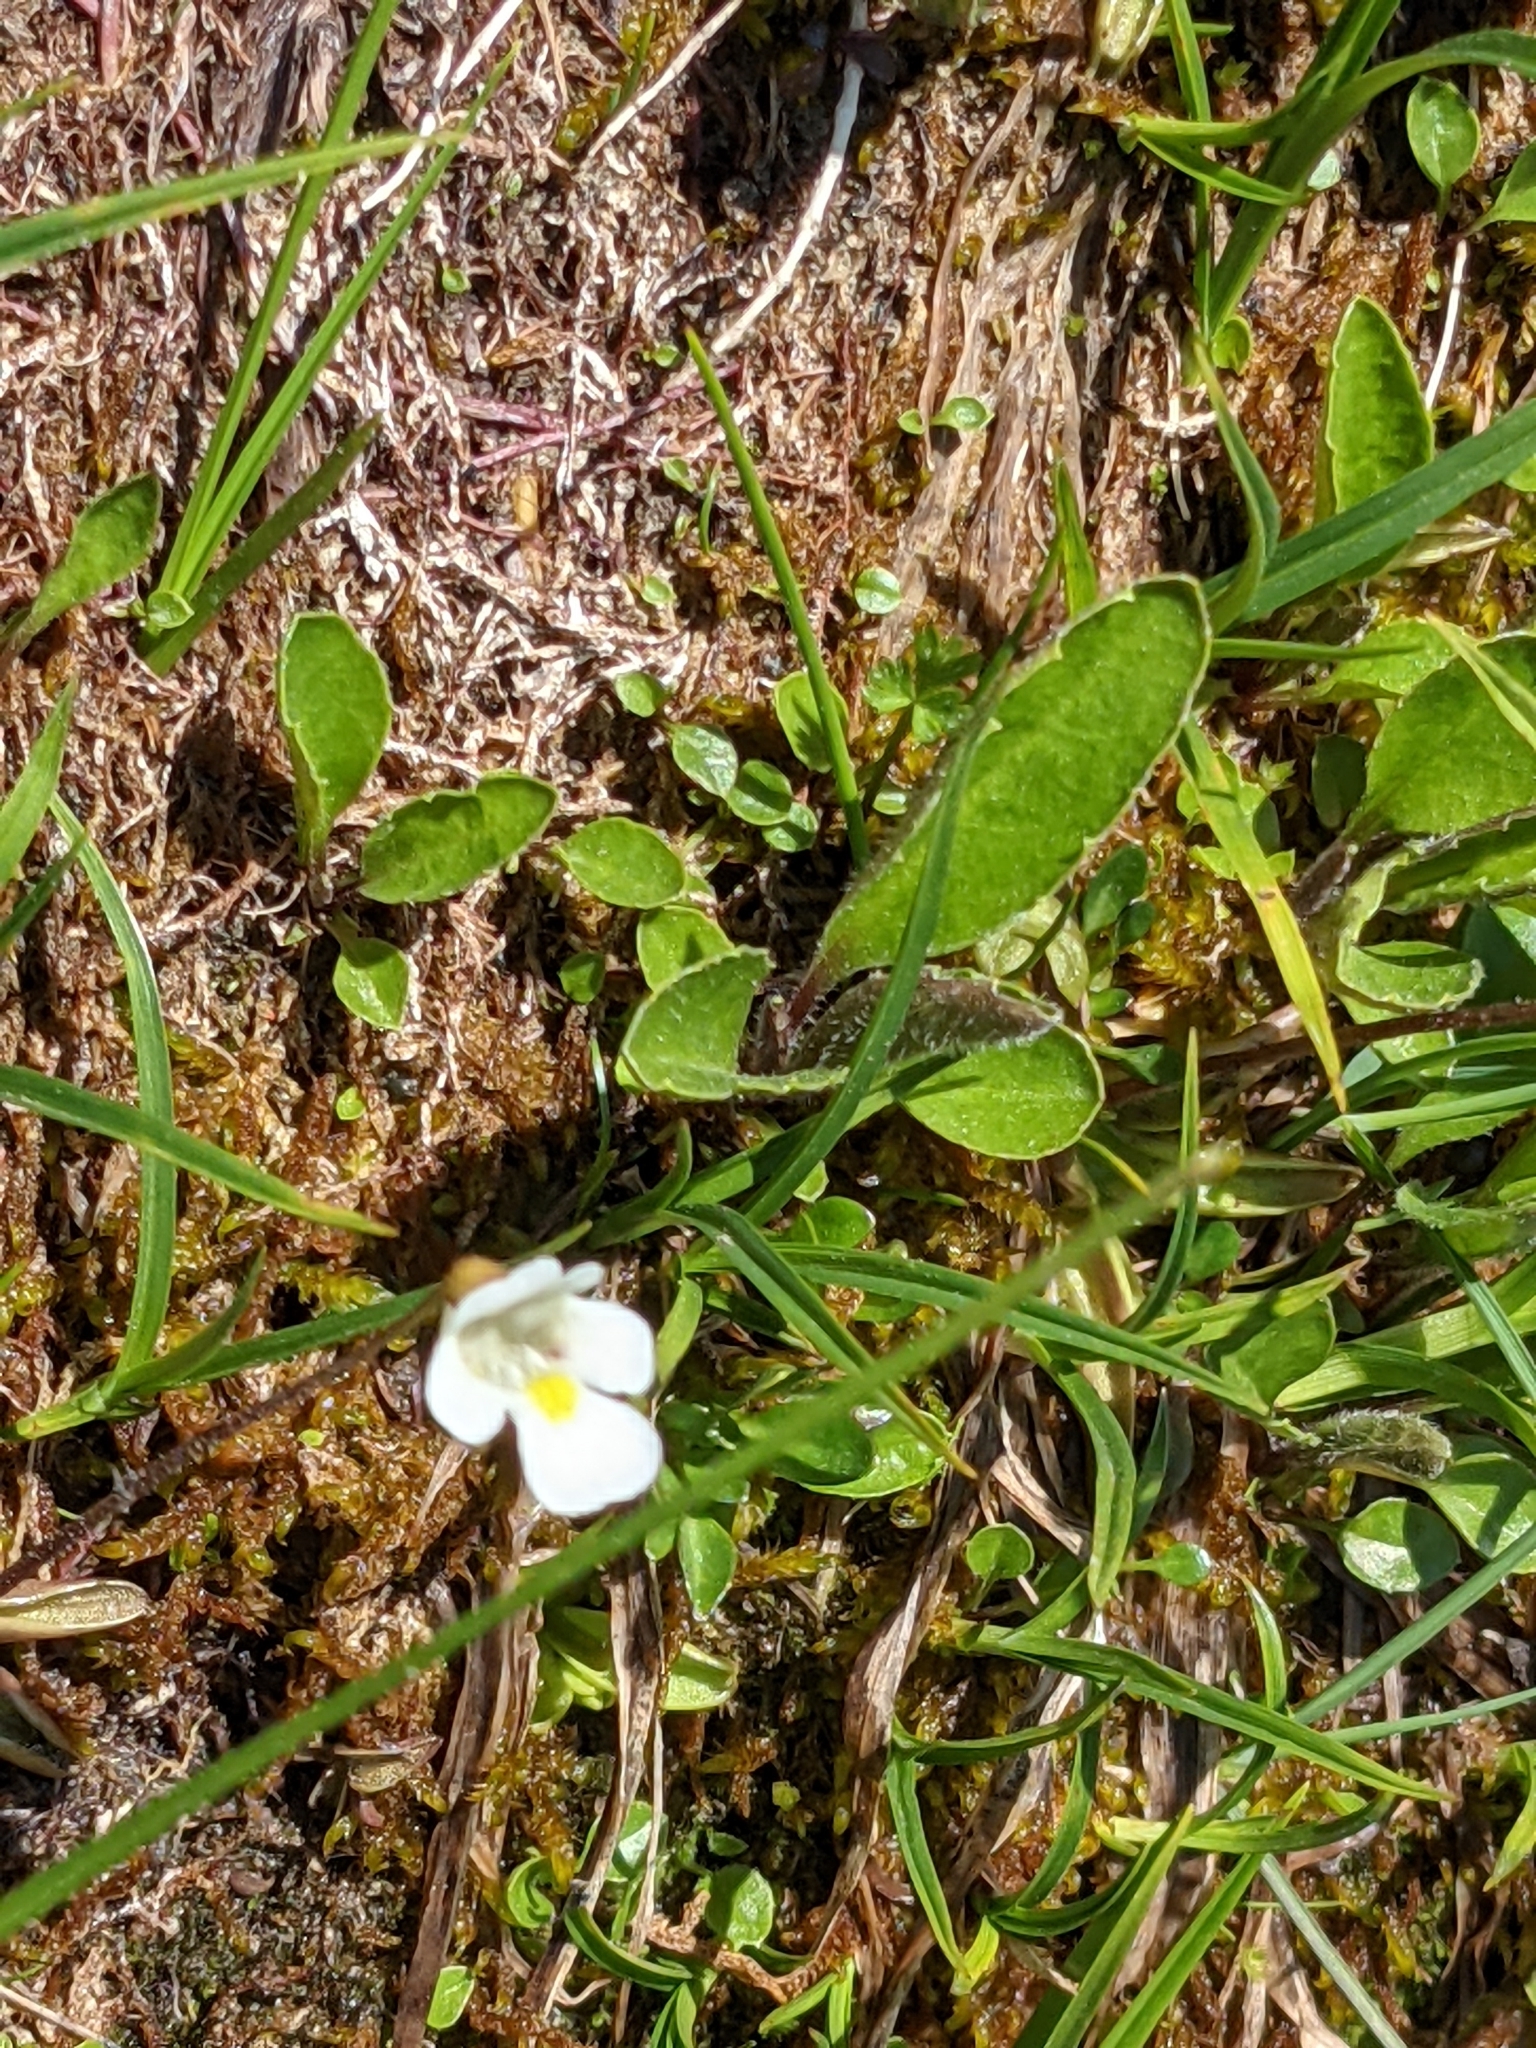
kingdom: Plantae
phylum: Tracheophyta
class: Magnoliopsida
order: Lamiales
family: Lentibulariaceae
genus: Pinguicula
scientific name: Pinguicula alpina
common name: Alpine butterwort
